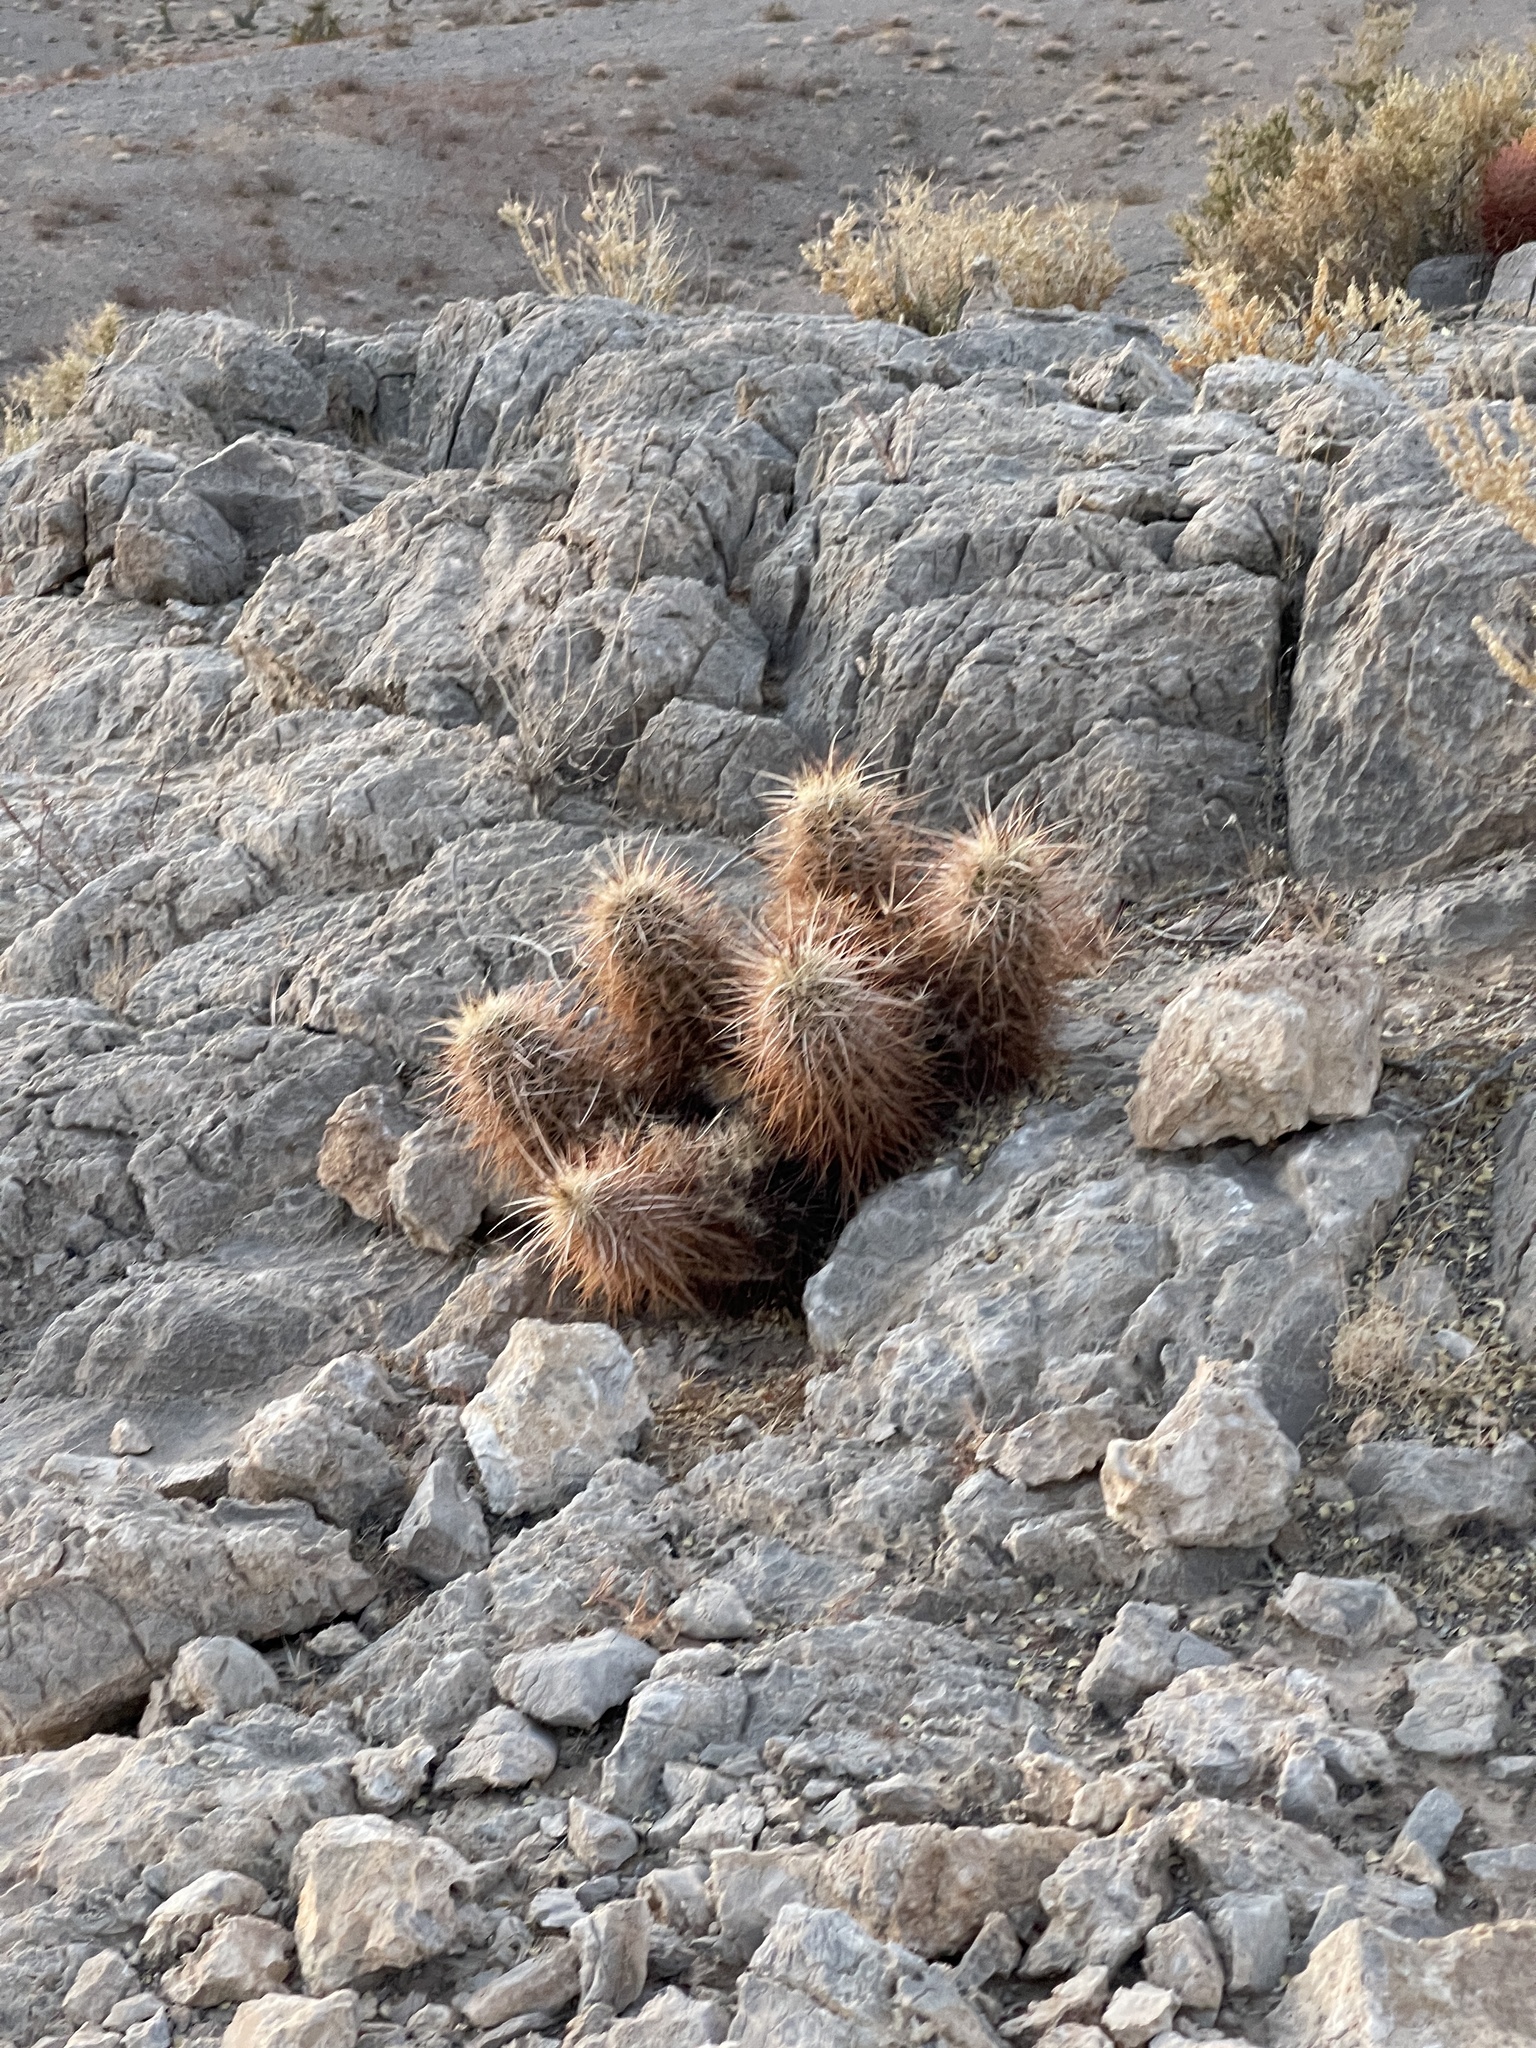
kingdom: Plantae
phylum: Tracheophyta
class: Magnoliopsida
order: Caryophyllales
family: Cactaceae
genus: Echinocereus
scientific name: Echinocereus engelmannii
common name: Engelmann's hedgehog cactus
